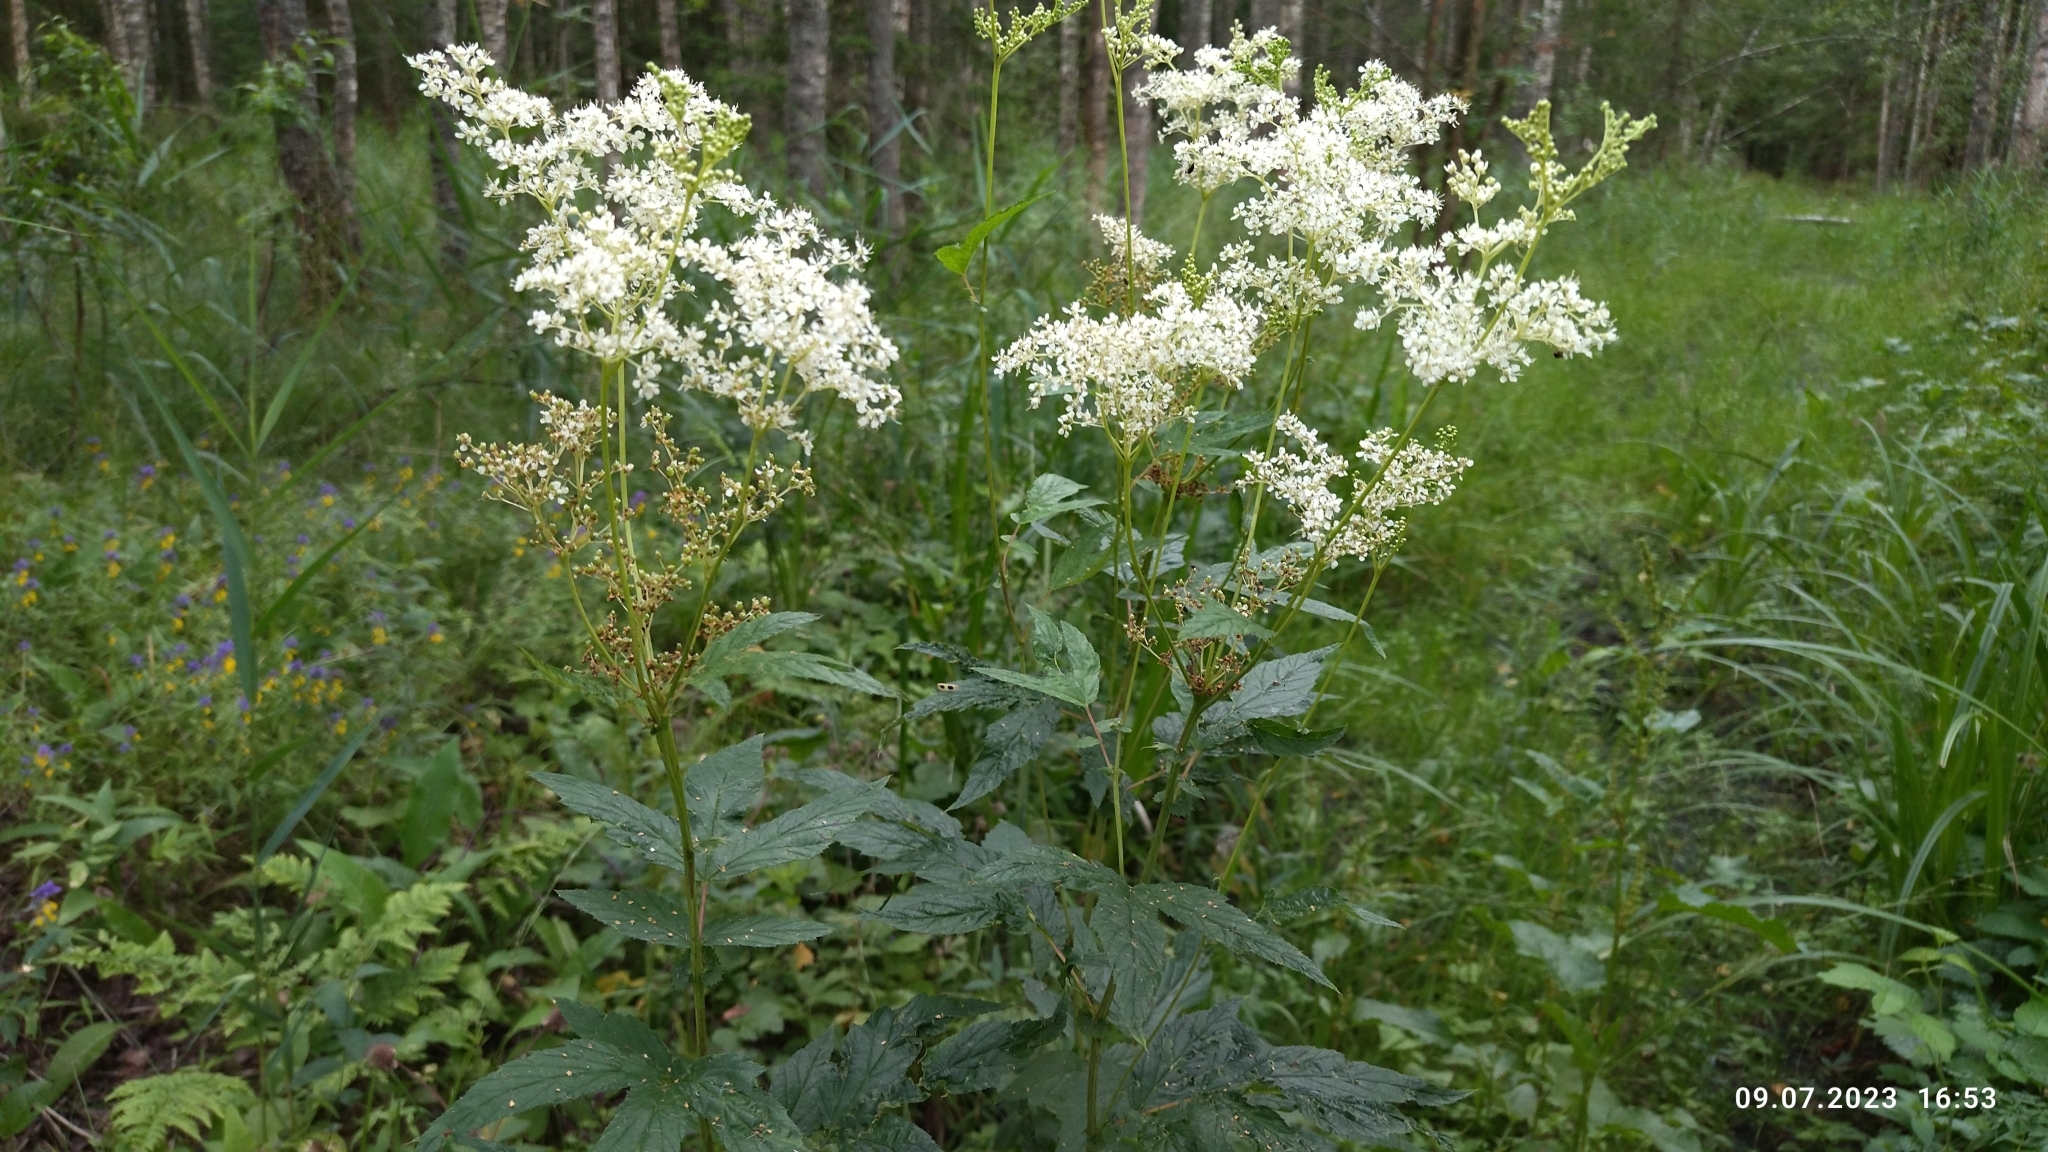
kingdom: Plantae
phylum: Tracheophyta
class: Magnoliopsida
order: Rosales
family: Rosaceae
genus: Filipendula
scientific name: Filipendula ulmaria
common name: Meadowsweet
